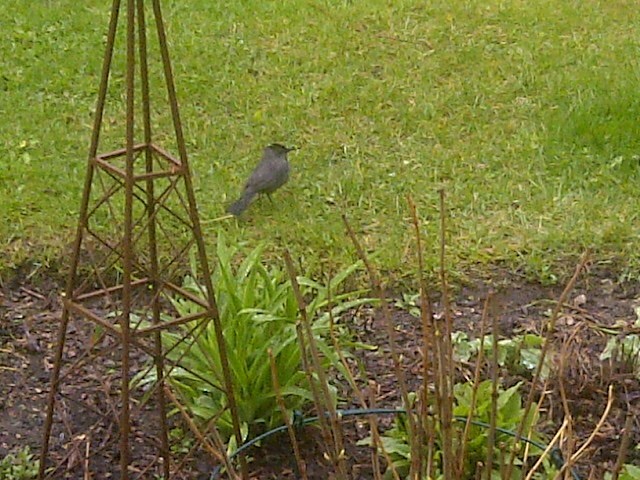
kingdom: Animalia
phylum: Chordata
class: Aves
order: Passeriformes
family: Mimidae
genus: Dumetella
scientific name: Dumetella carolinensis
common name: Gray catbird
